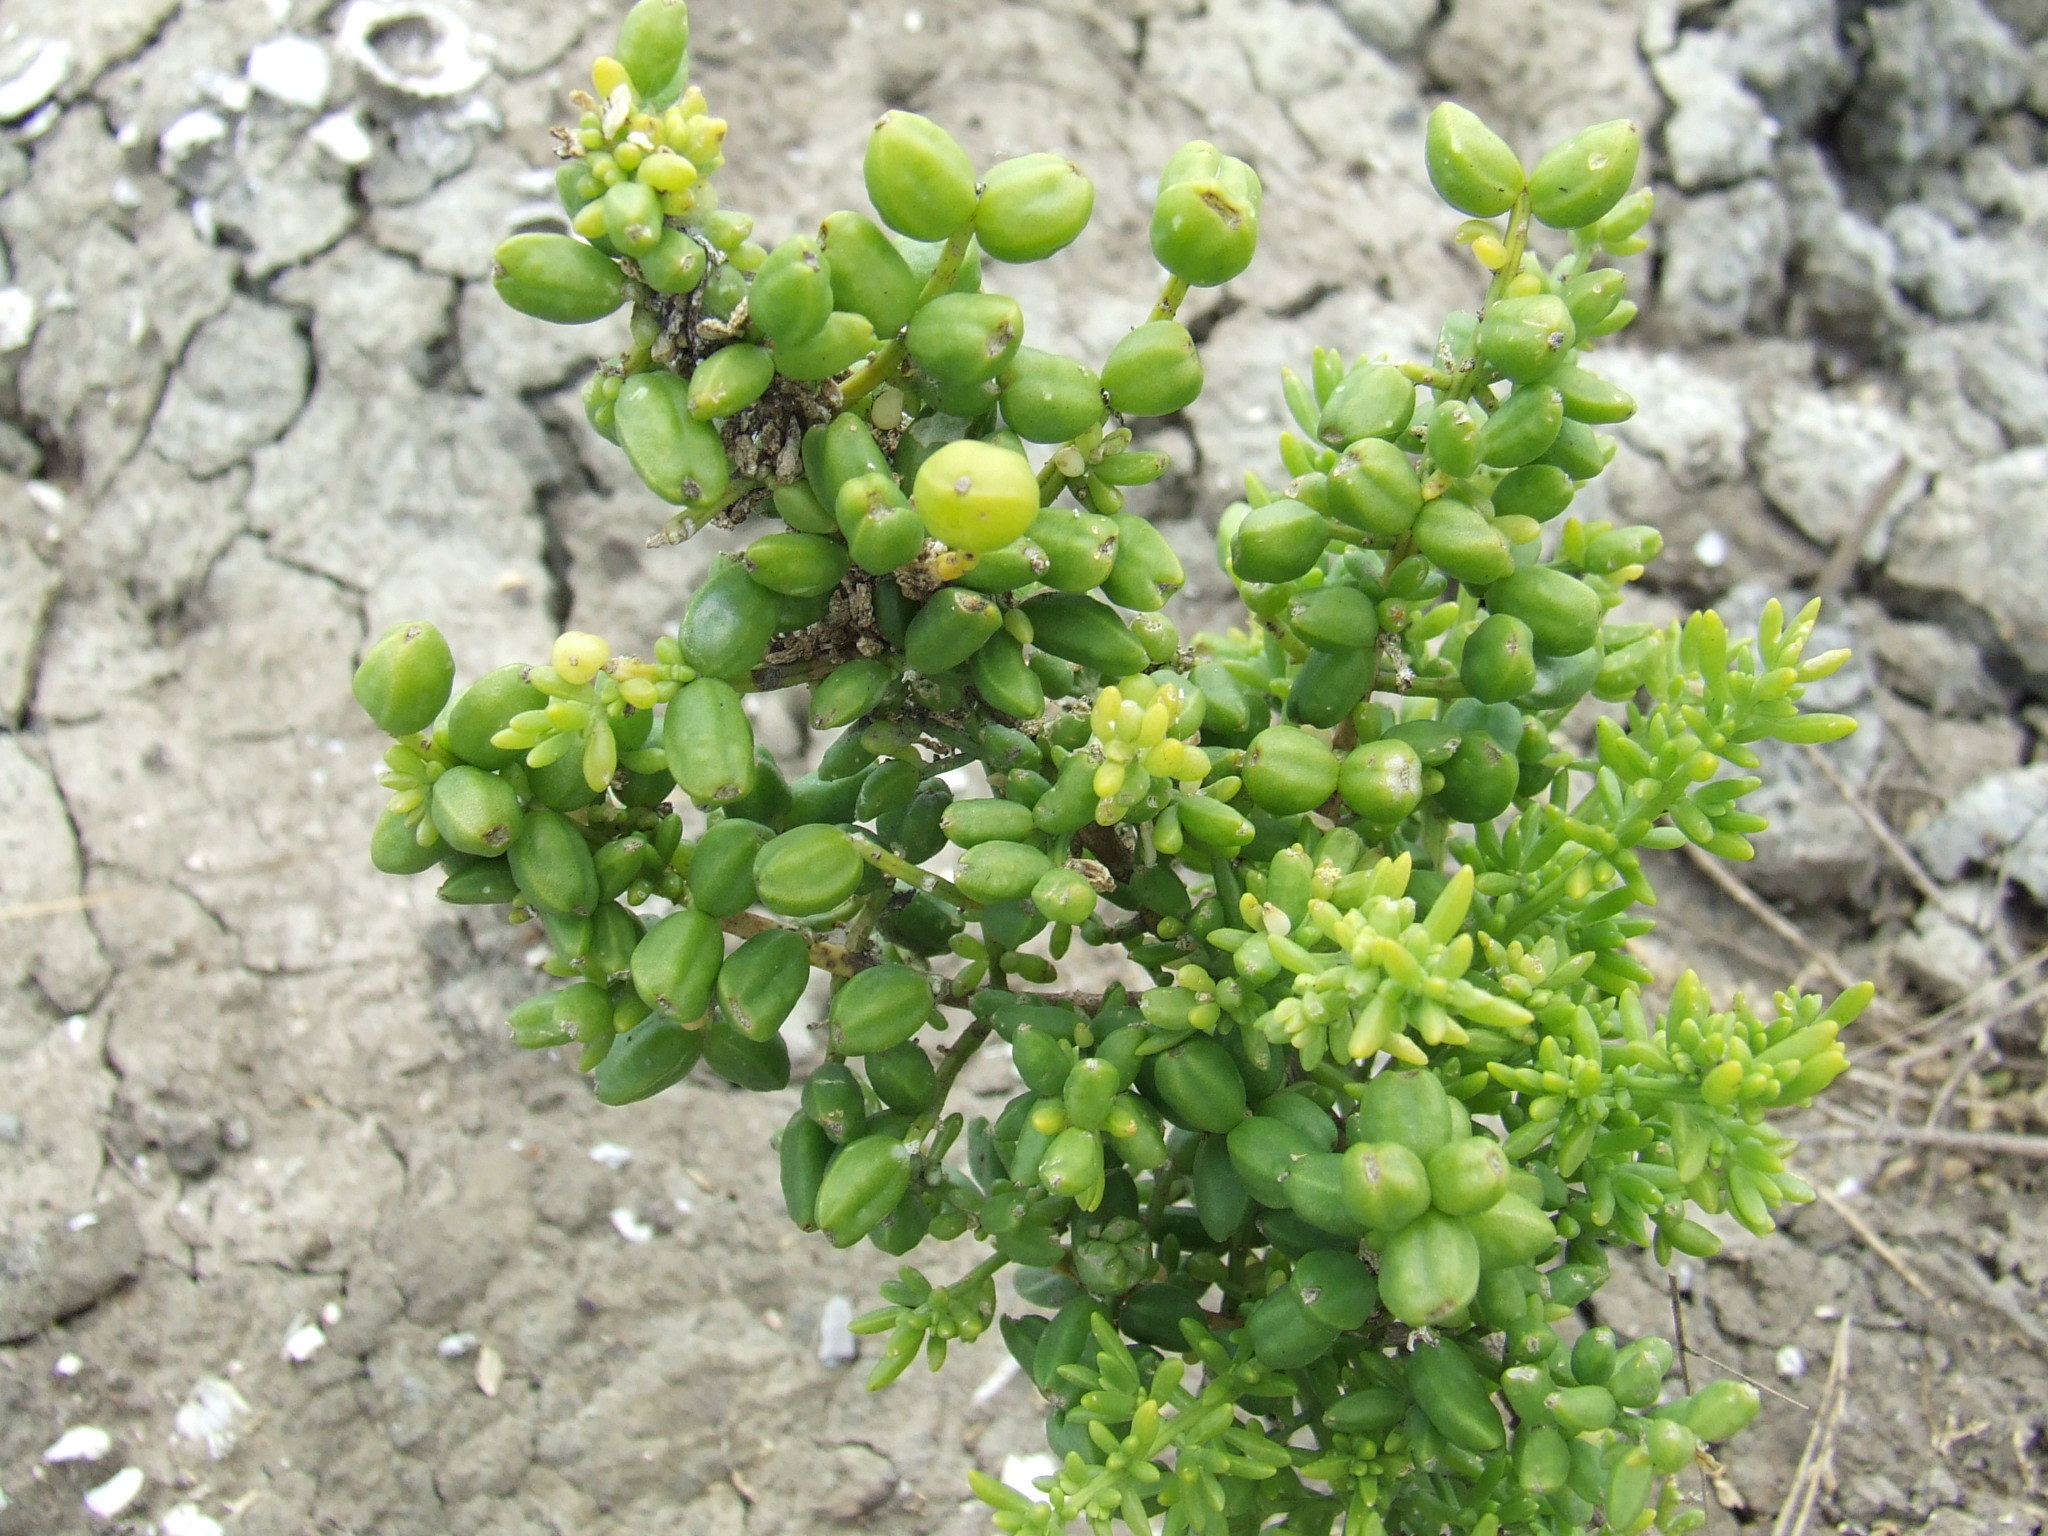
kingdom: Plantae
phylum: Tracheophyta
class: Magnoliopsida
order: Brassicales
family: Bataceae
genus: Batis
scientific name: Batis argillicola
